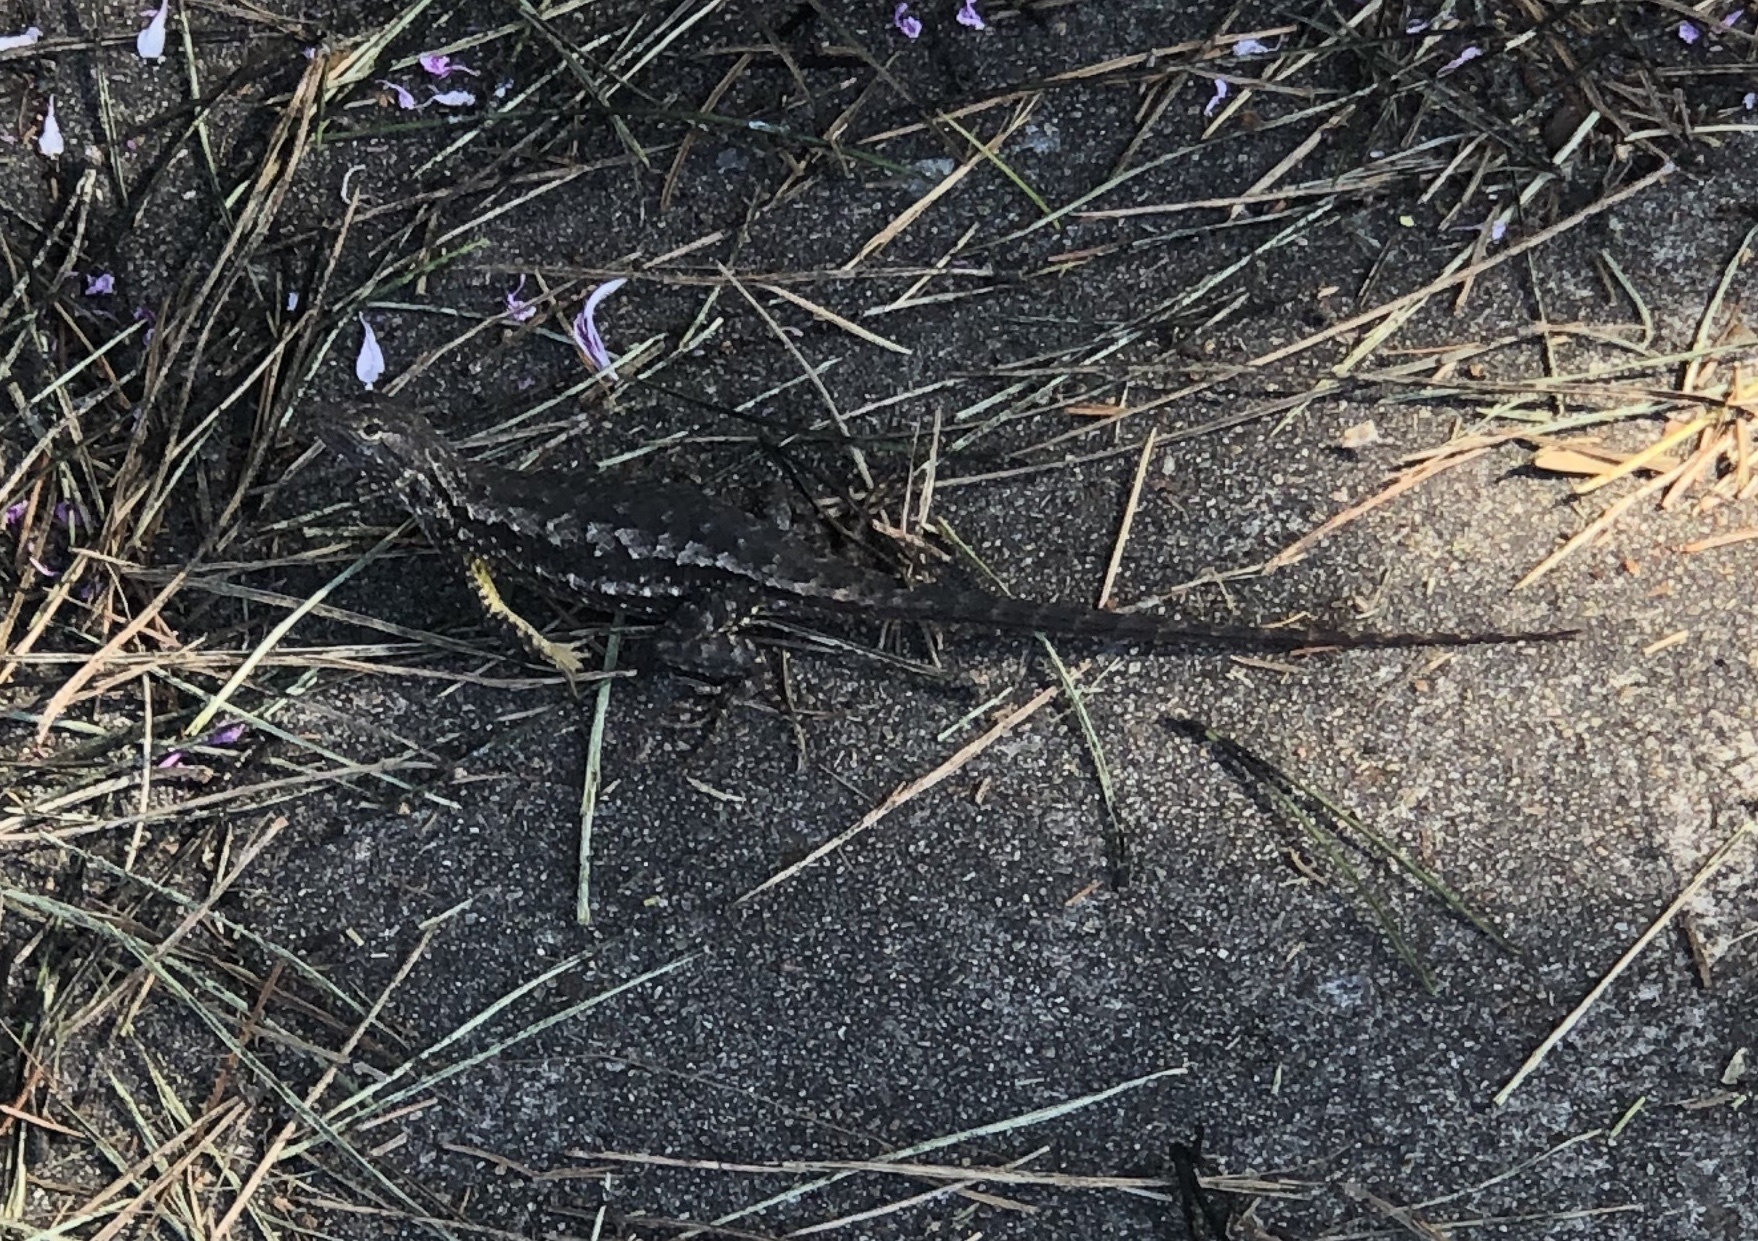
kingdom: Animalia
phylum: Chordata
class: Squamata
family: Phrynosomatidae
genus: Sceloporus
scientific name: Sceloporus occidentalis
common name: Western fence lizard
